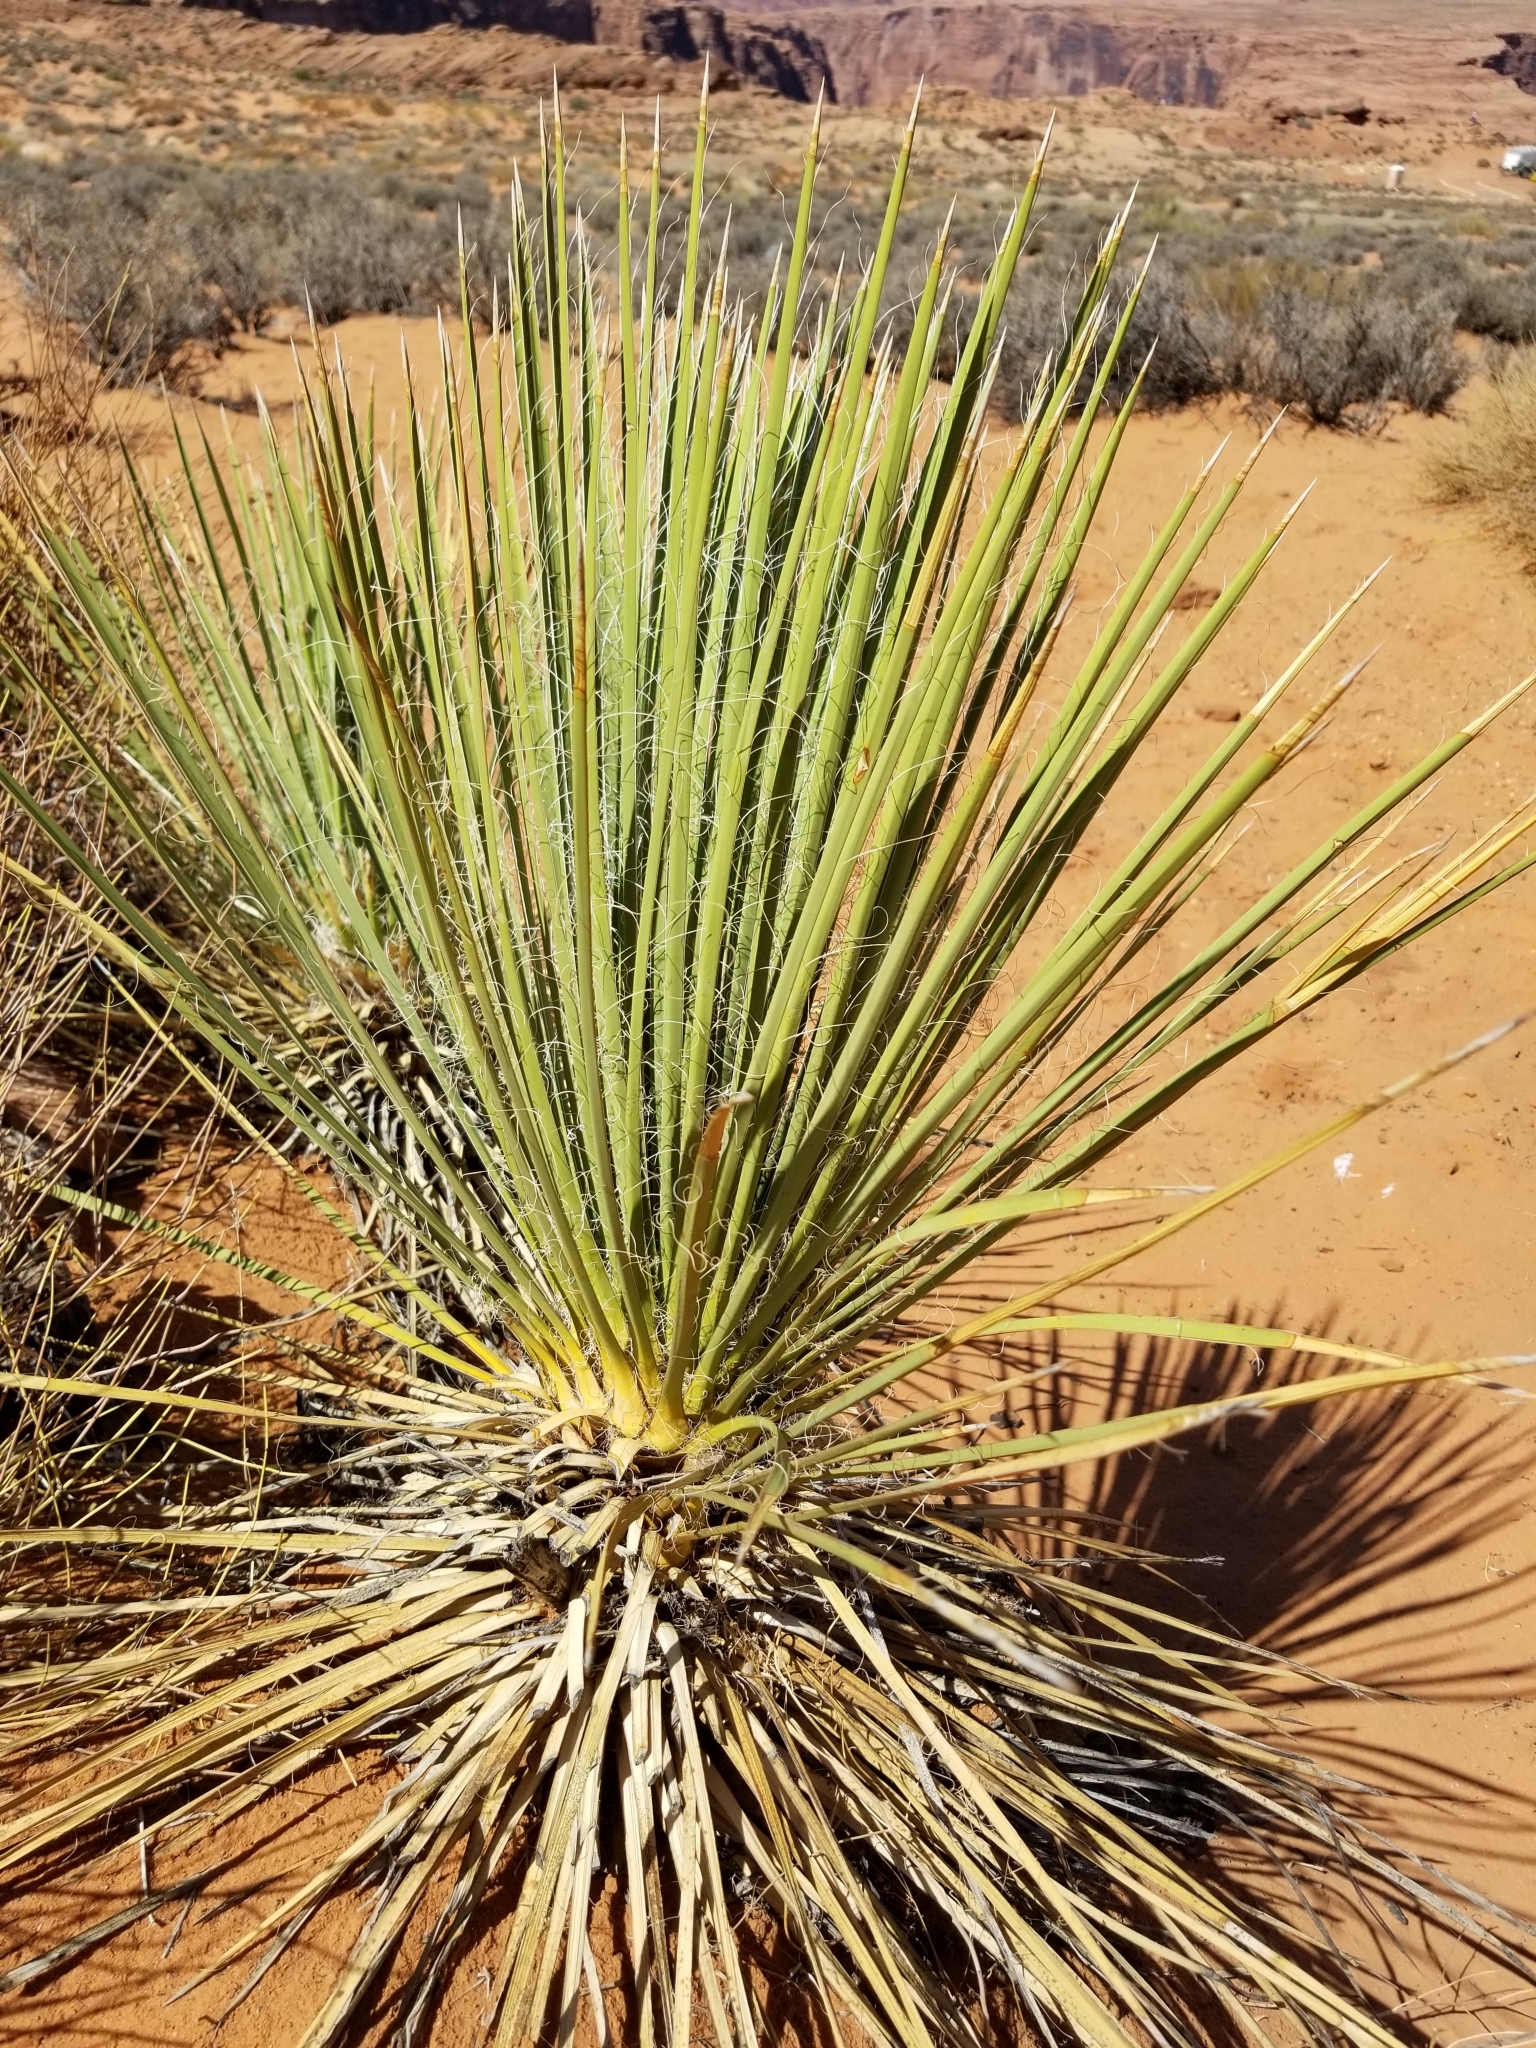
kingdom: Plantae
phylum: Tracheophyta
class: Liliopsida
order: Asparagales
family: Asparagaceae
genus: Yucca
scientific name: Yucca angustissima
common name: Narrowleaf yucca
